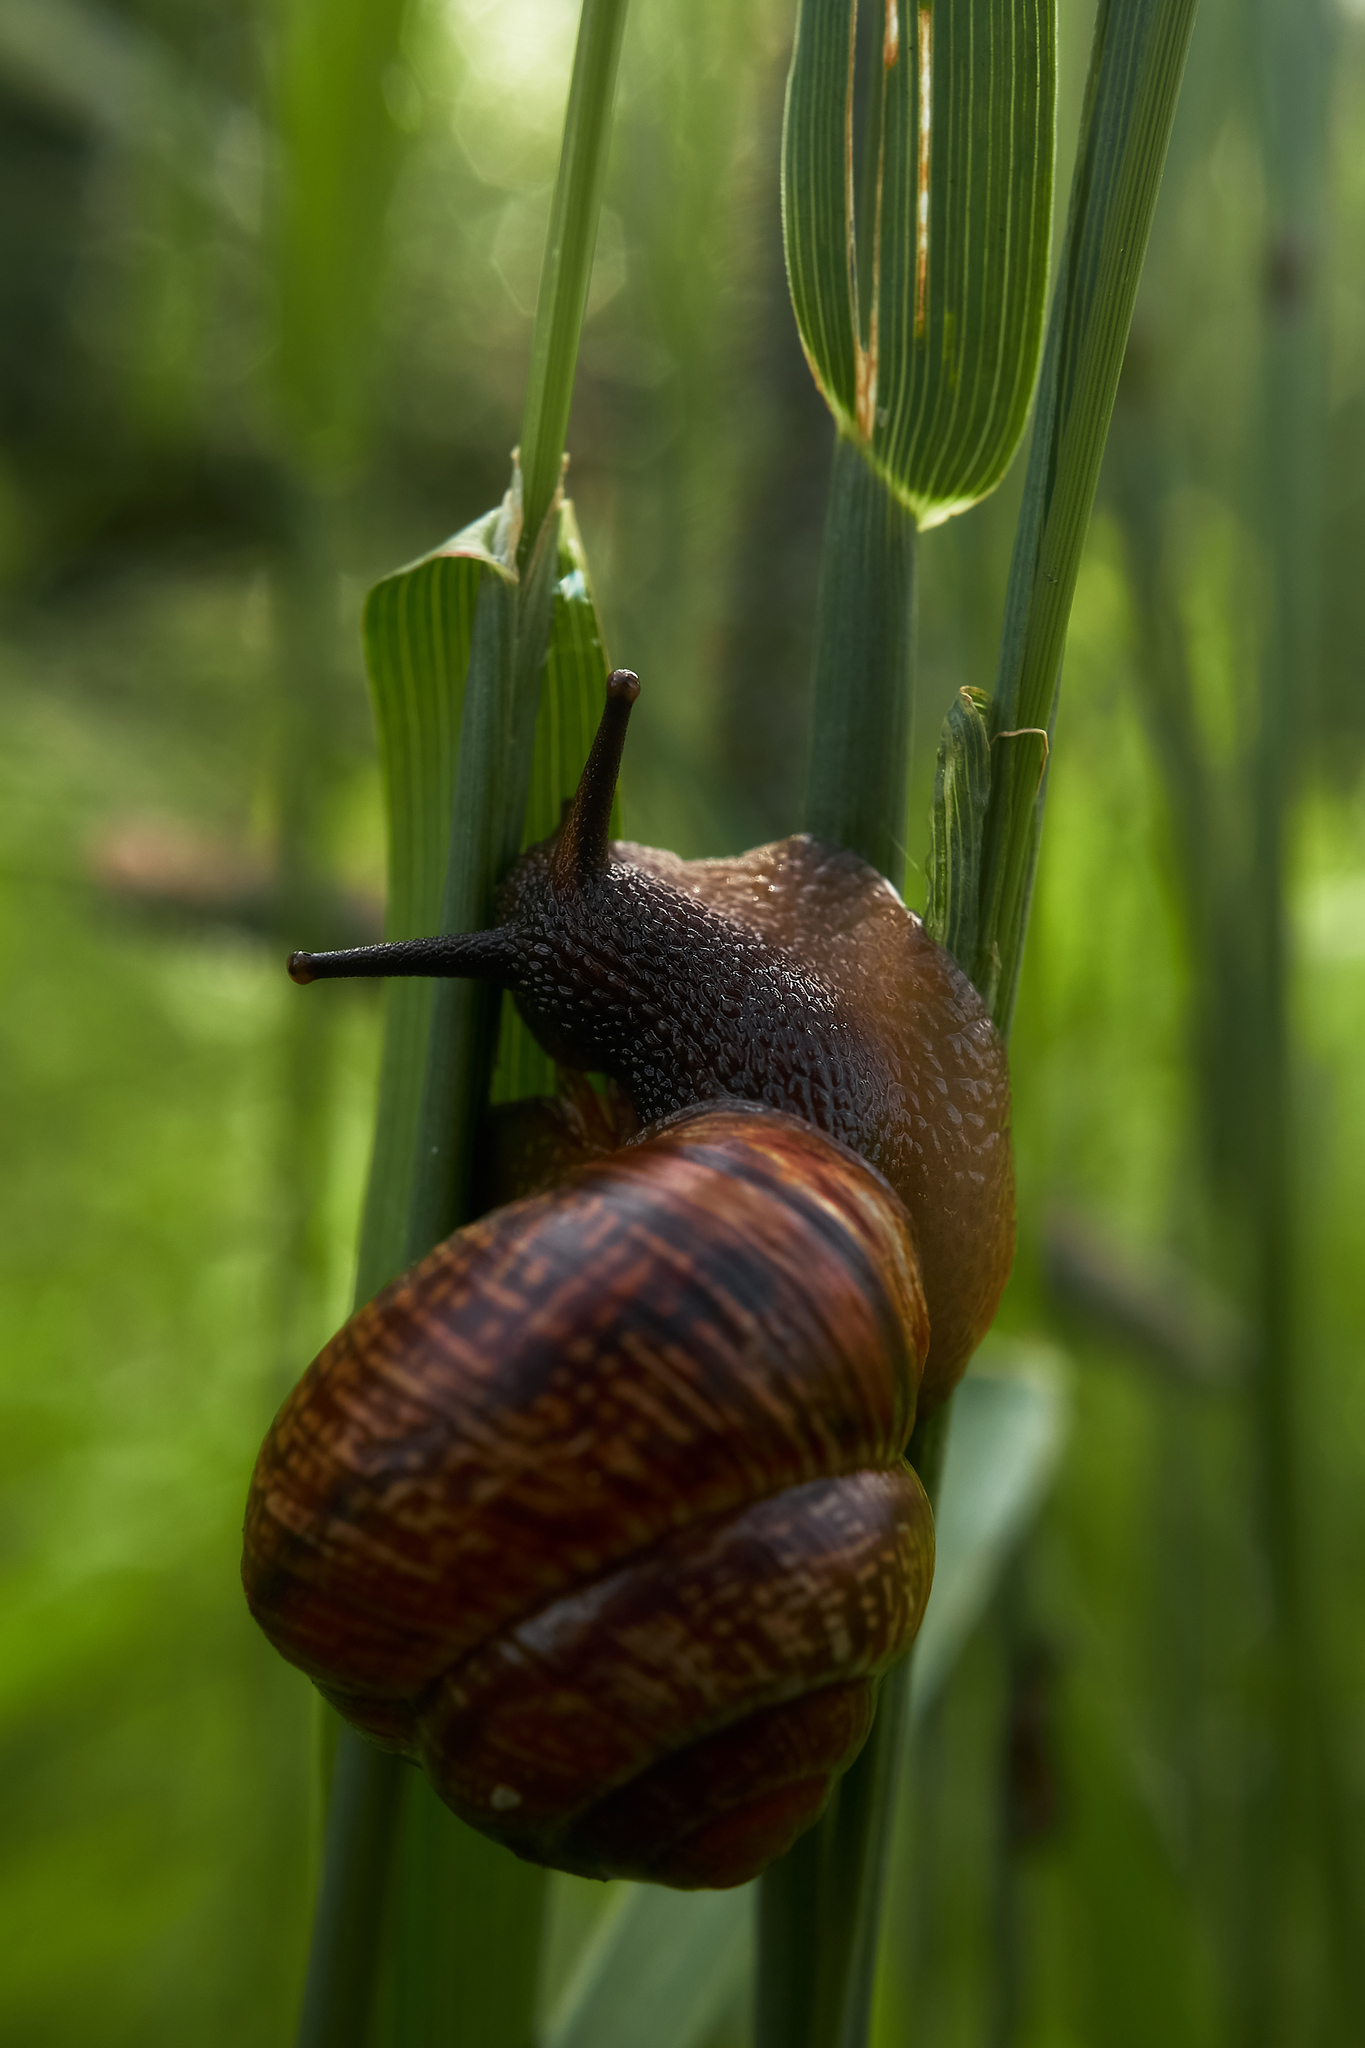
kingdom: Animalia
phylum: Mollusca
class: Gastropoda
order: Stylommatophora
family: Helicidae
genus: Arianta
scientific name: Arianta arbustorum
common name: Copse snail
